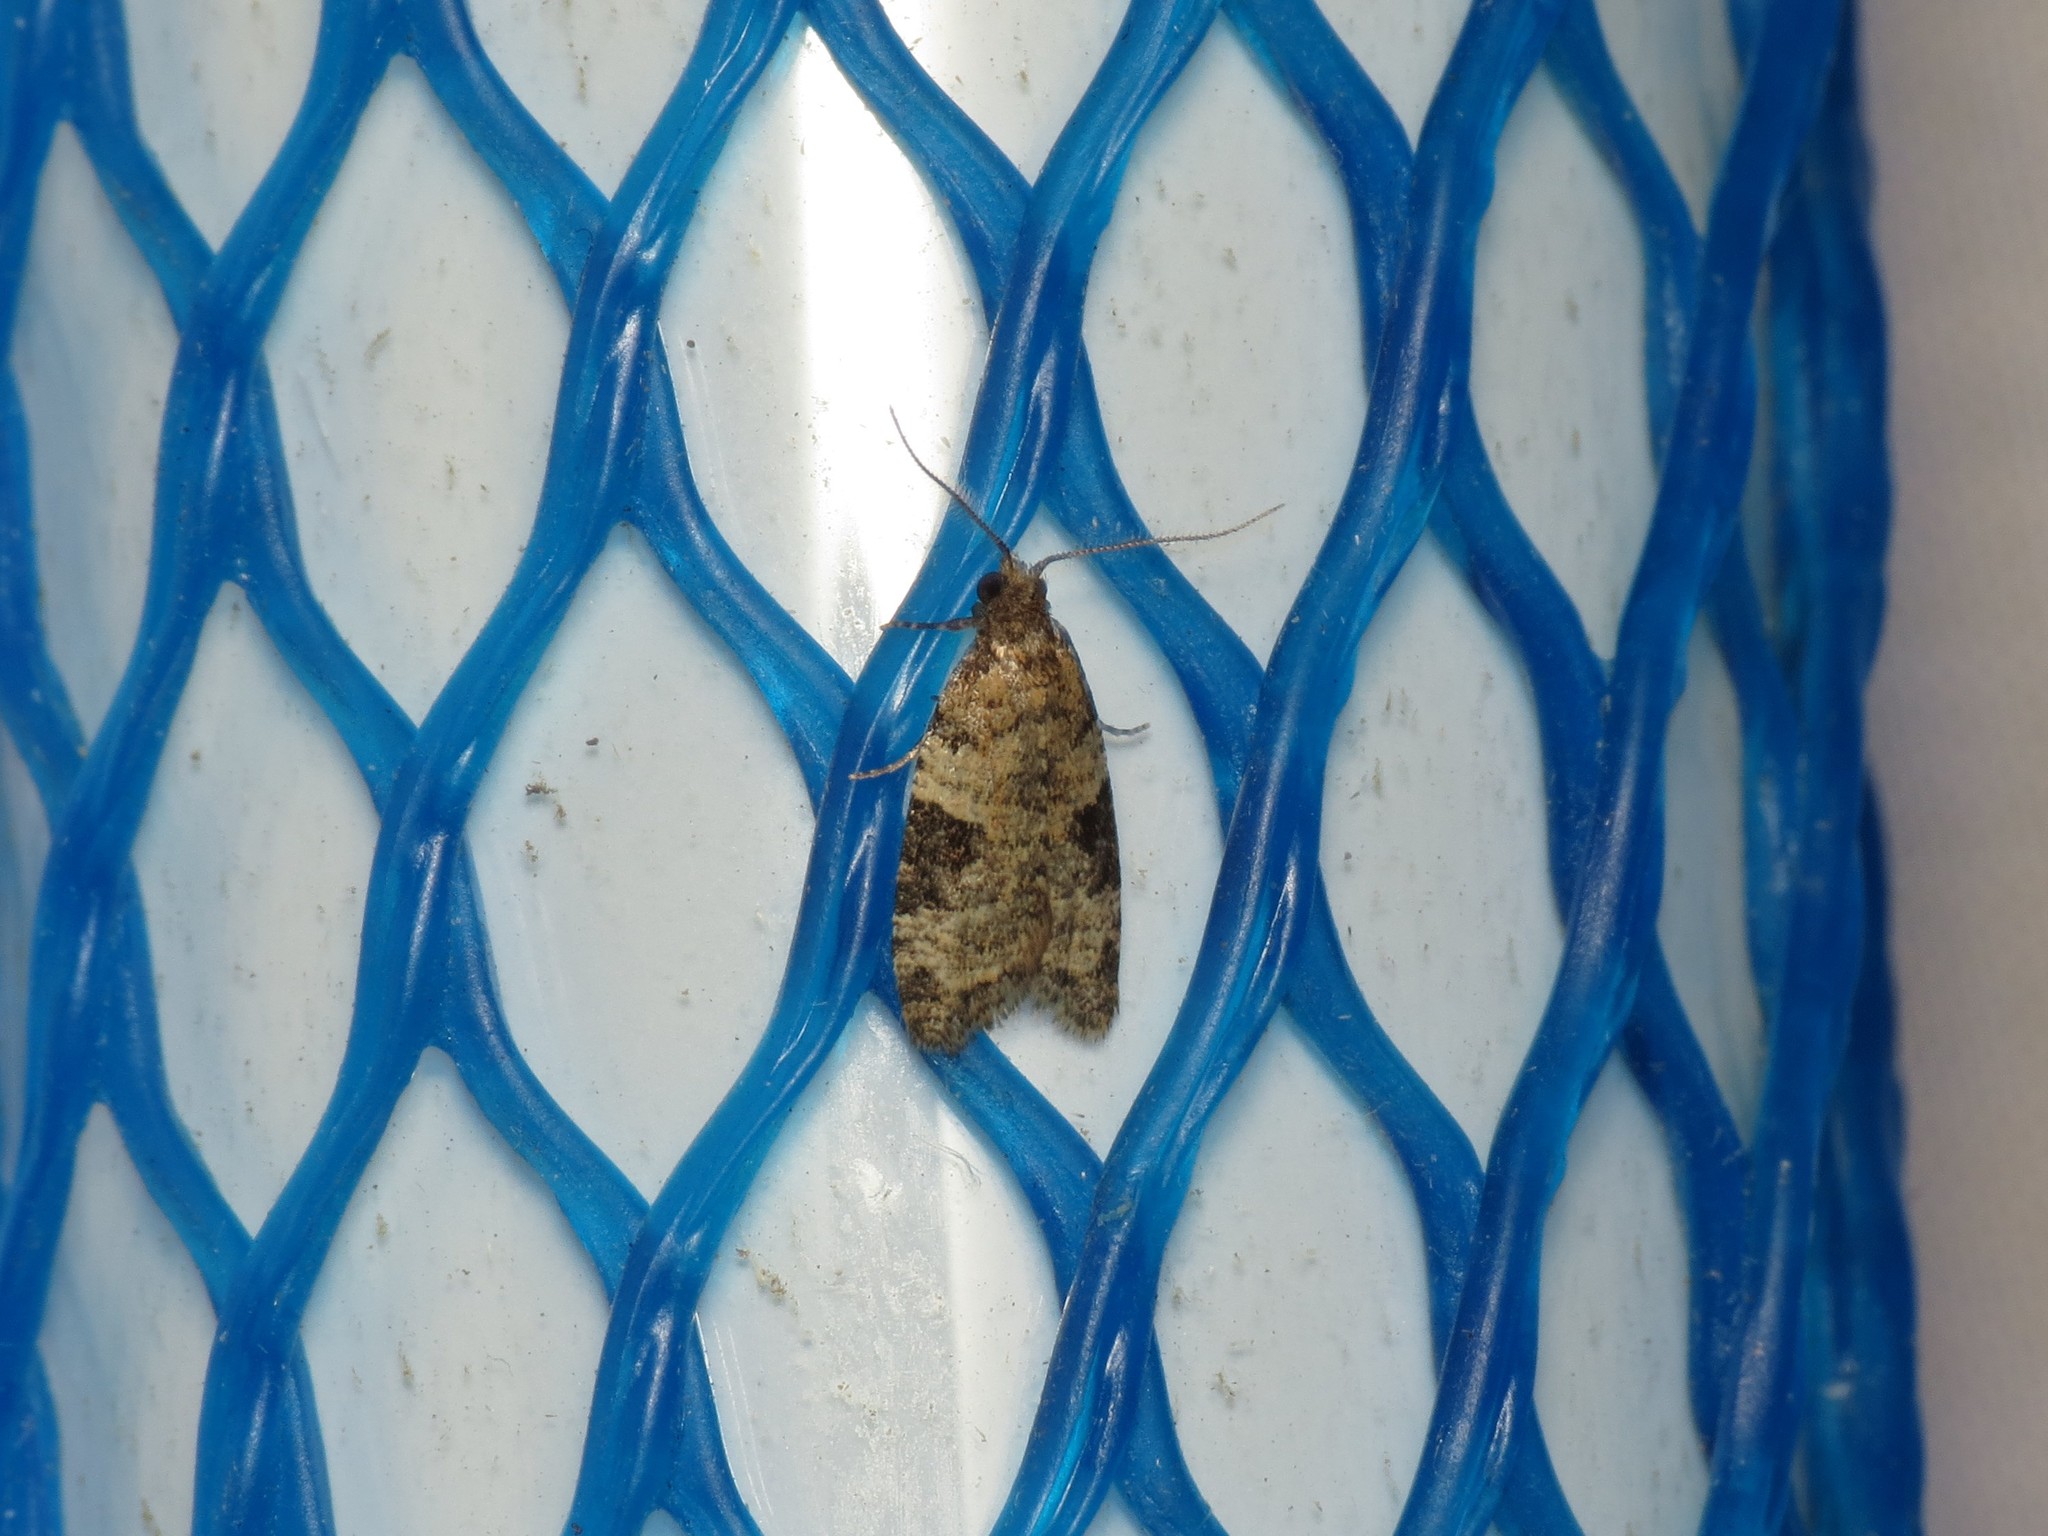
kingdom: Animalia
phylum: Arthropoda
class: Insecta
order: Lepidoptera
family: Tortricidae
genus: Anopina
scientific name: Anopina triangulana
